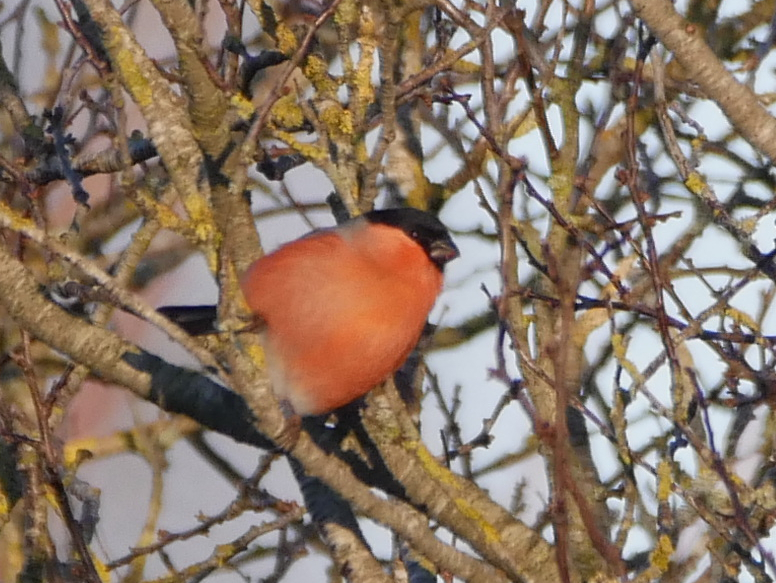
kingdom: Animalia
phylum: Chordata
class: Aves
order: Passeriformes
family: Fringillidae
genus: Pyrrhula
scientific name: Pyrrhula pyrrhula
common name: Eurasian bullfinch
